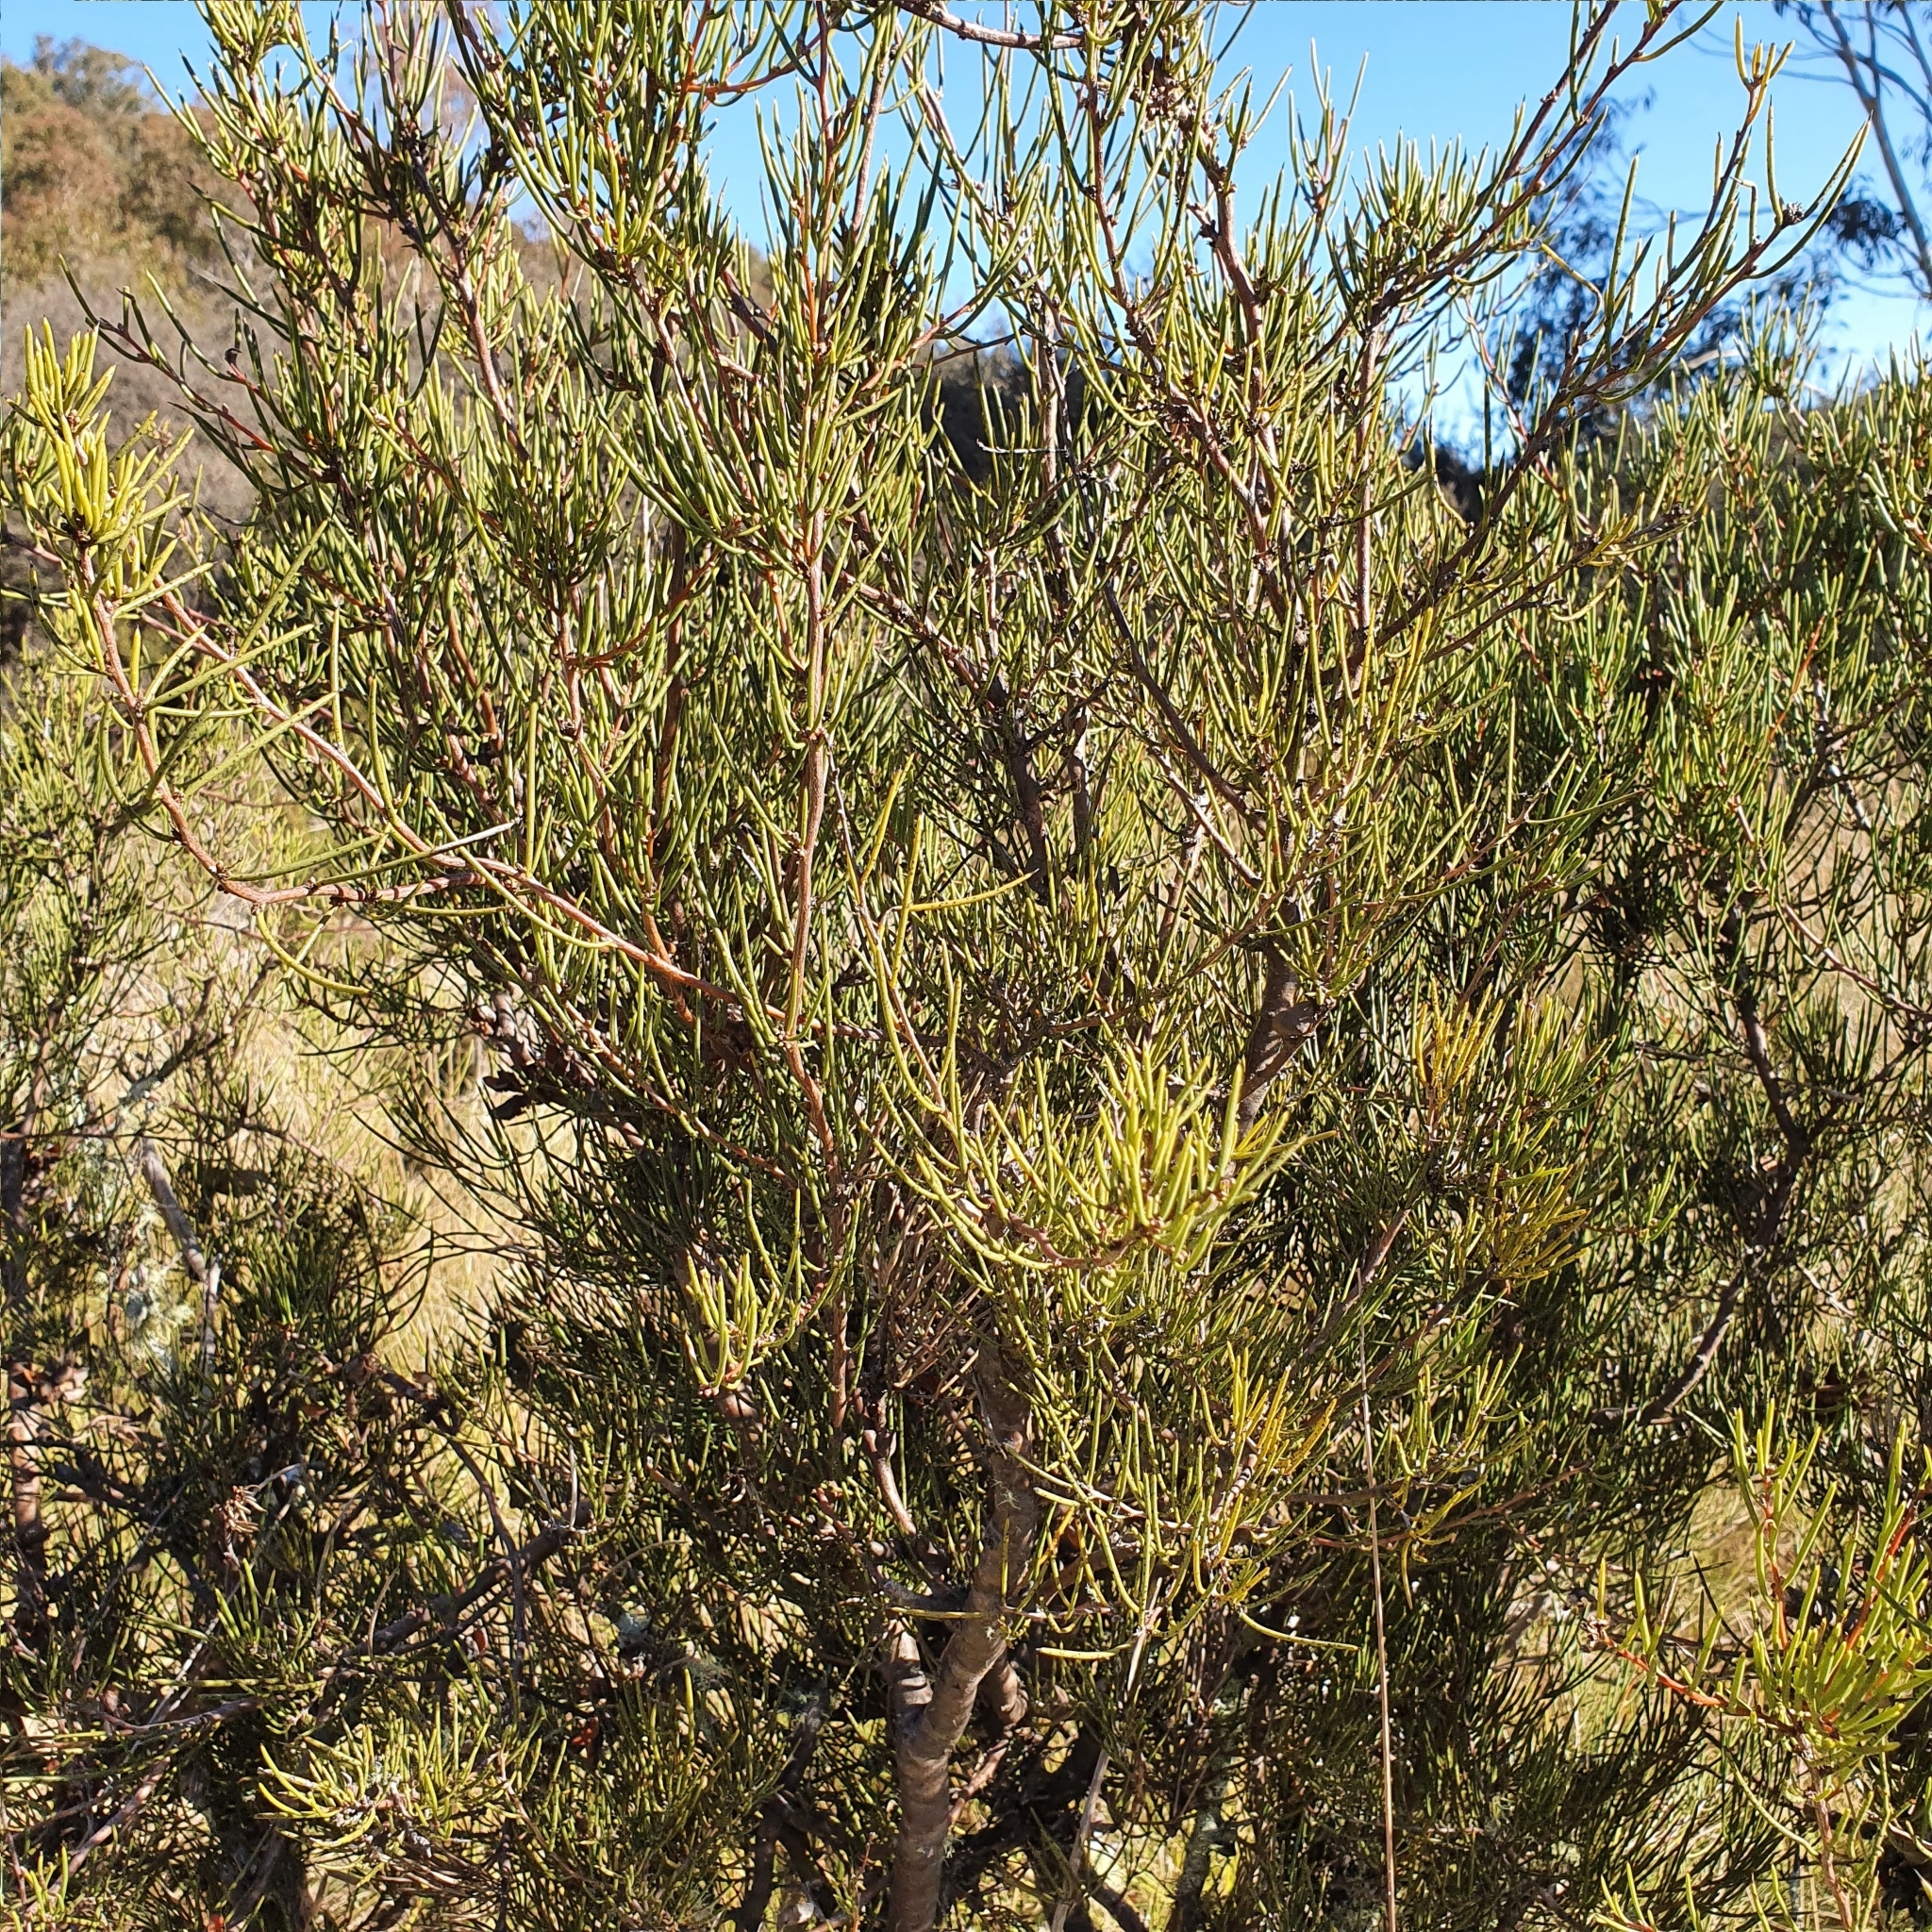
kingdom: Plantae
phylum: Tracheophyta
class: Magnoliopsida
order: Proteales
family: Proteaceae
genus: Hakea
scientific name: Hakea microcarpa
